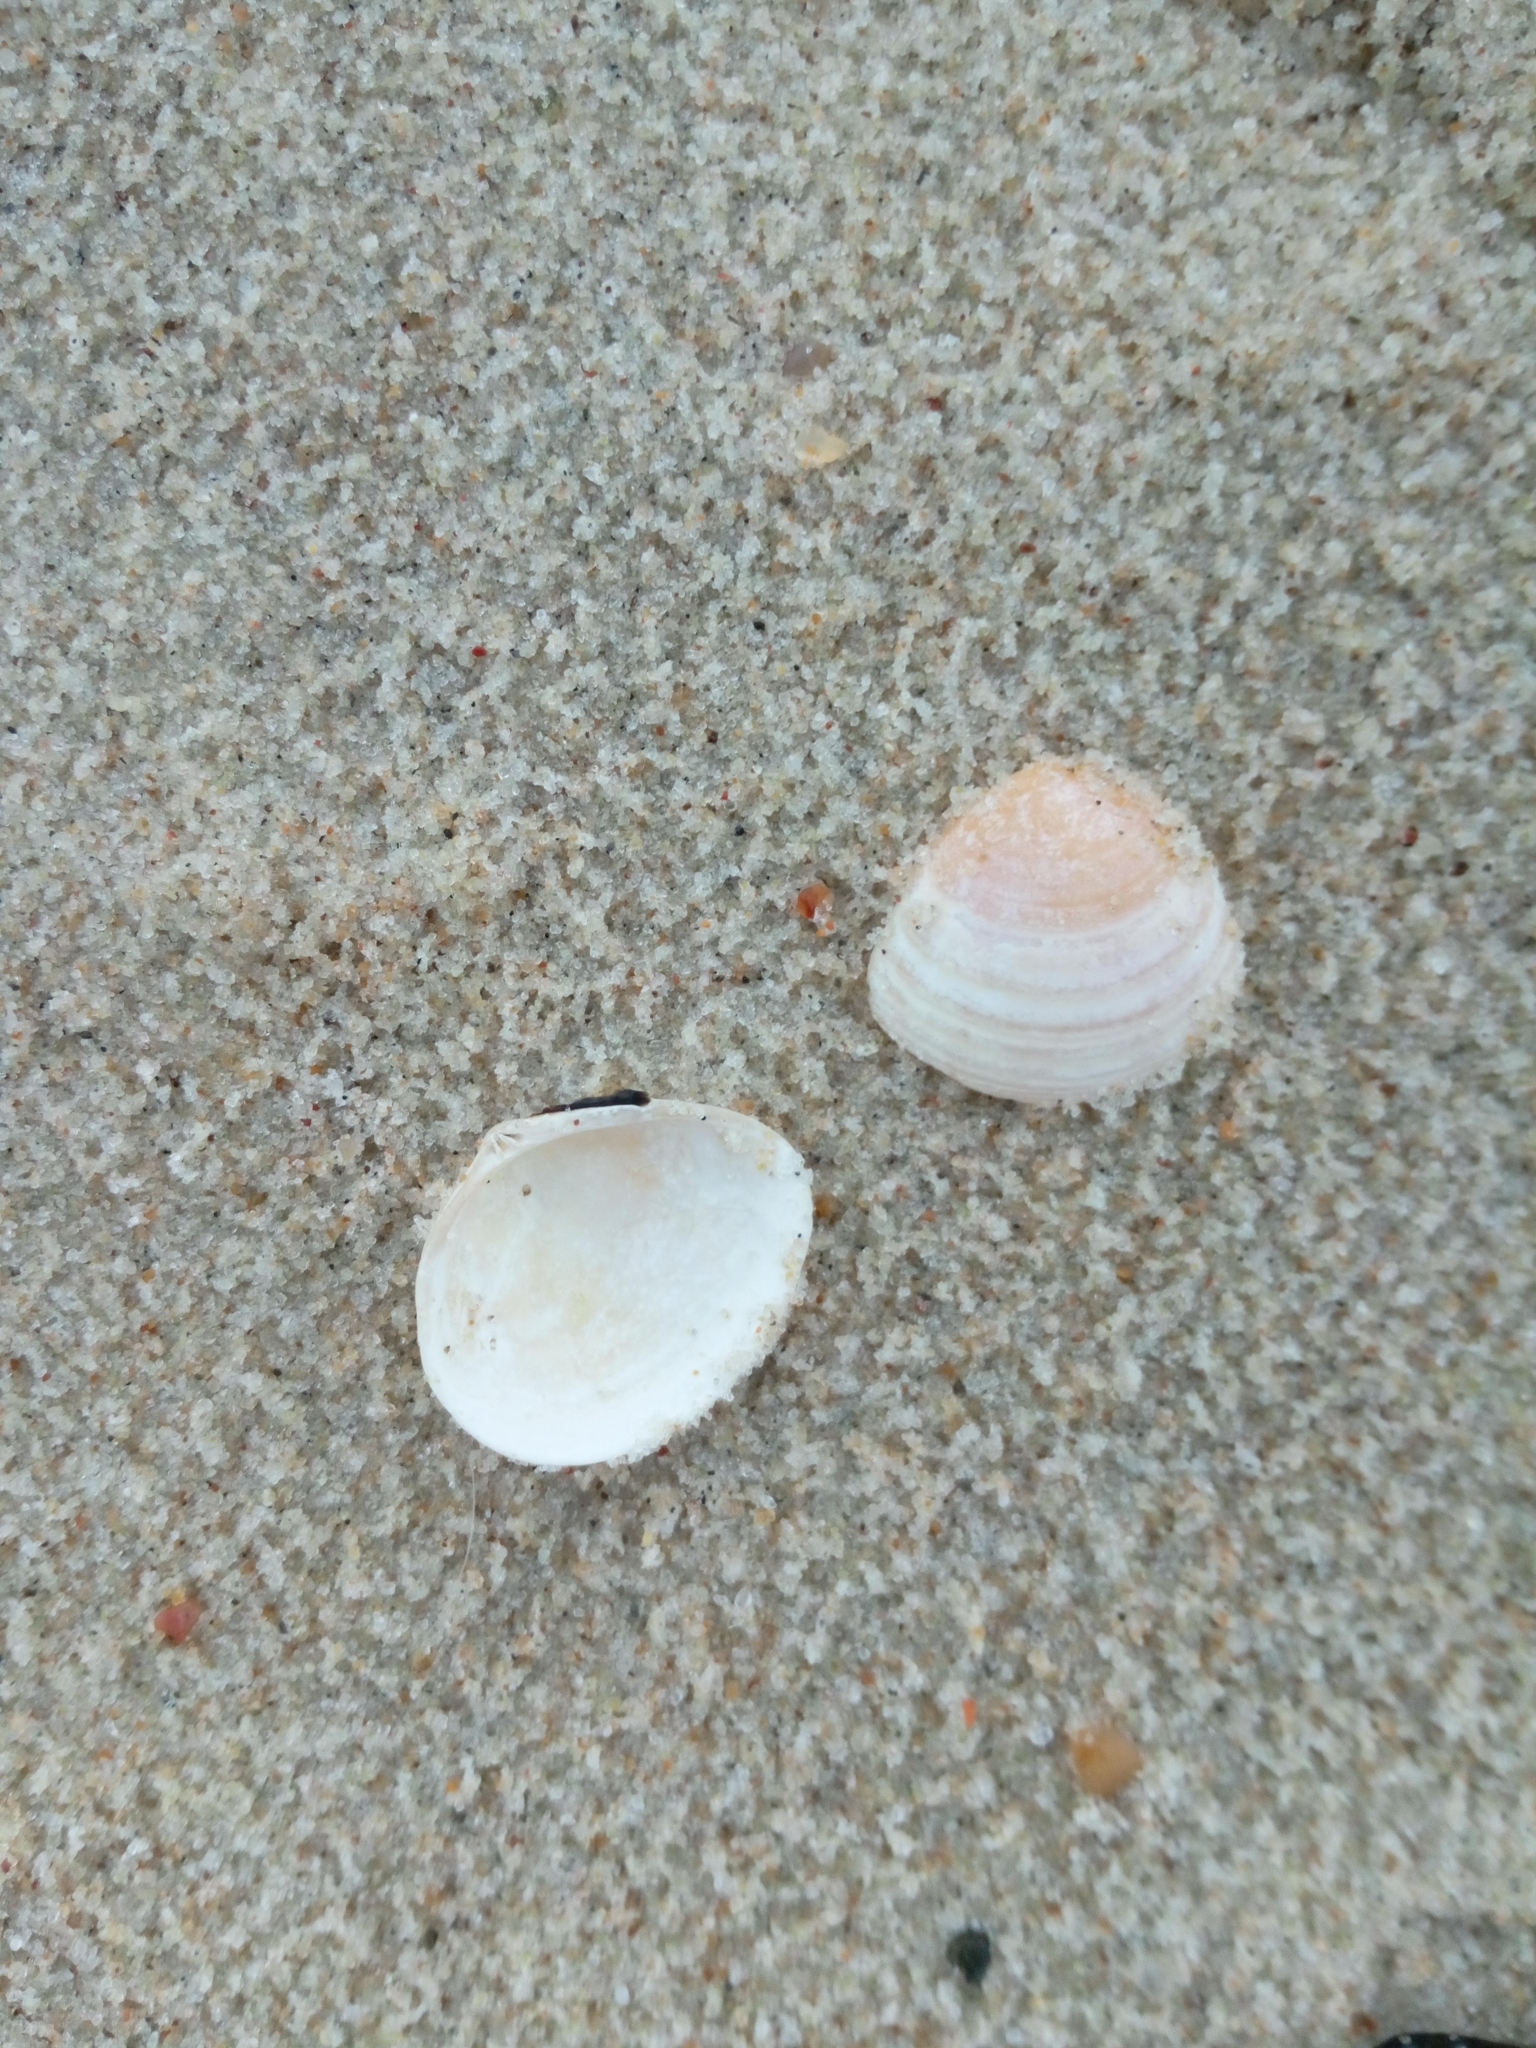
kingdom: Animalia
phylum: Mollusca
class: Bivalvia
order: Cardiida
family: Tellinidae
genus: Macoma
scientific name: Macoma balthica
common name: Baltic tellin
